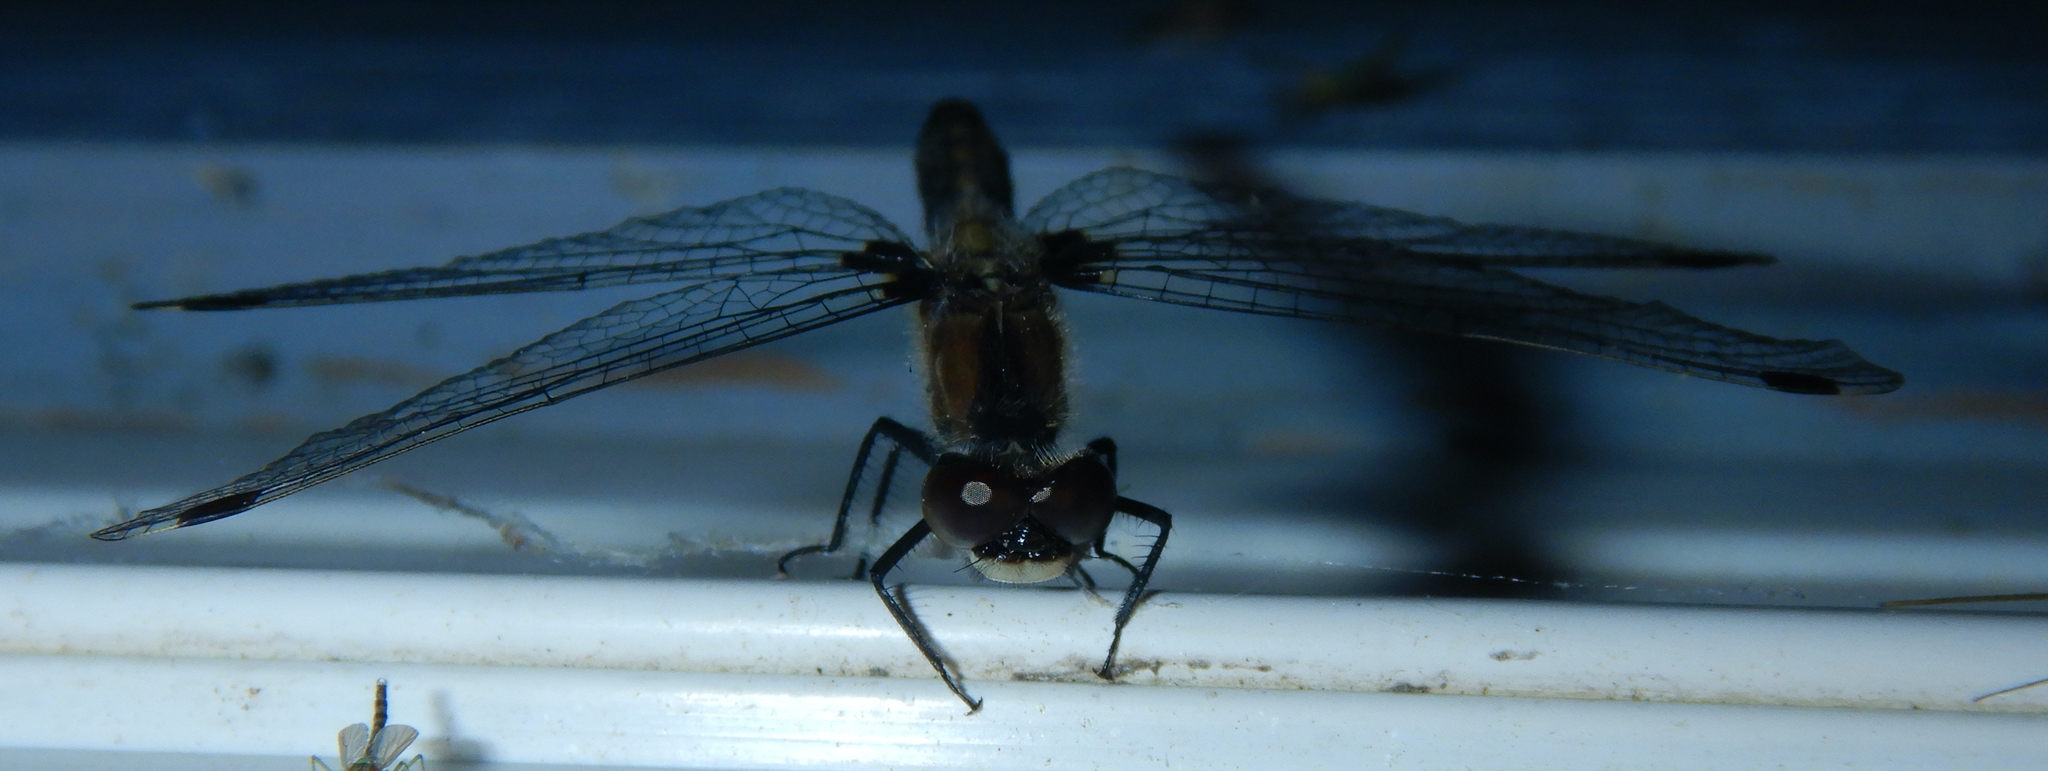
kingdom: Animalia
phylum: Arthropoda
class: Insecta
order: Odonata
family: Libellulidae
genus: Leucorrhinia
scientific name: Leucorrhinia frigida
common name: Frosted whiteface
